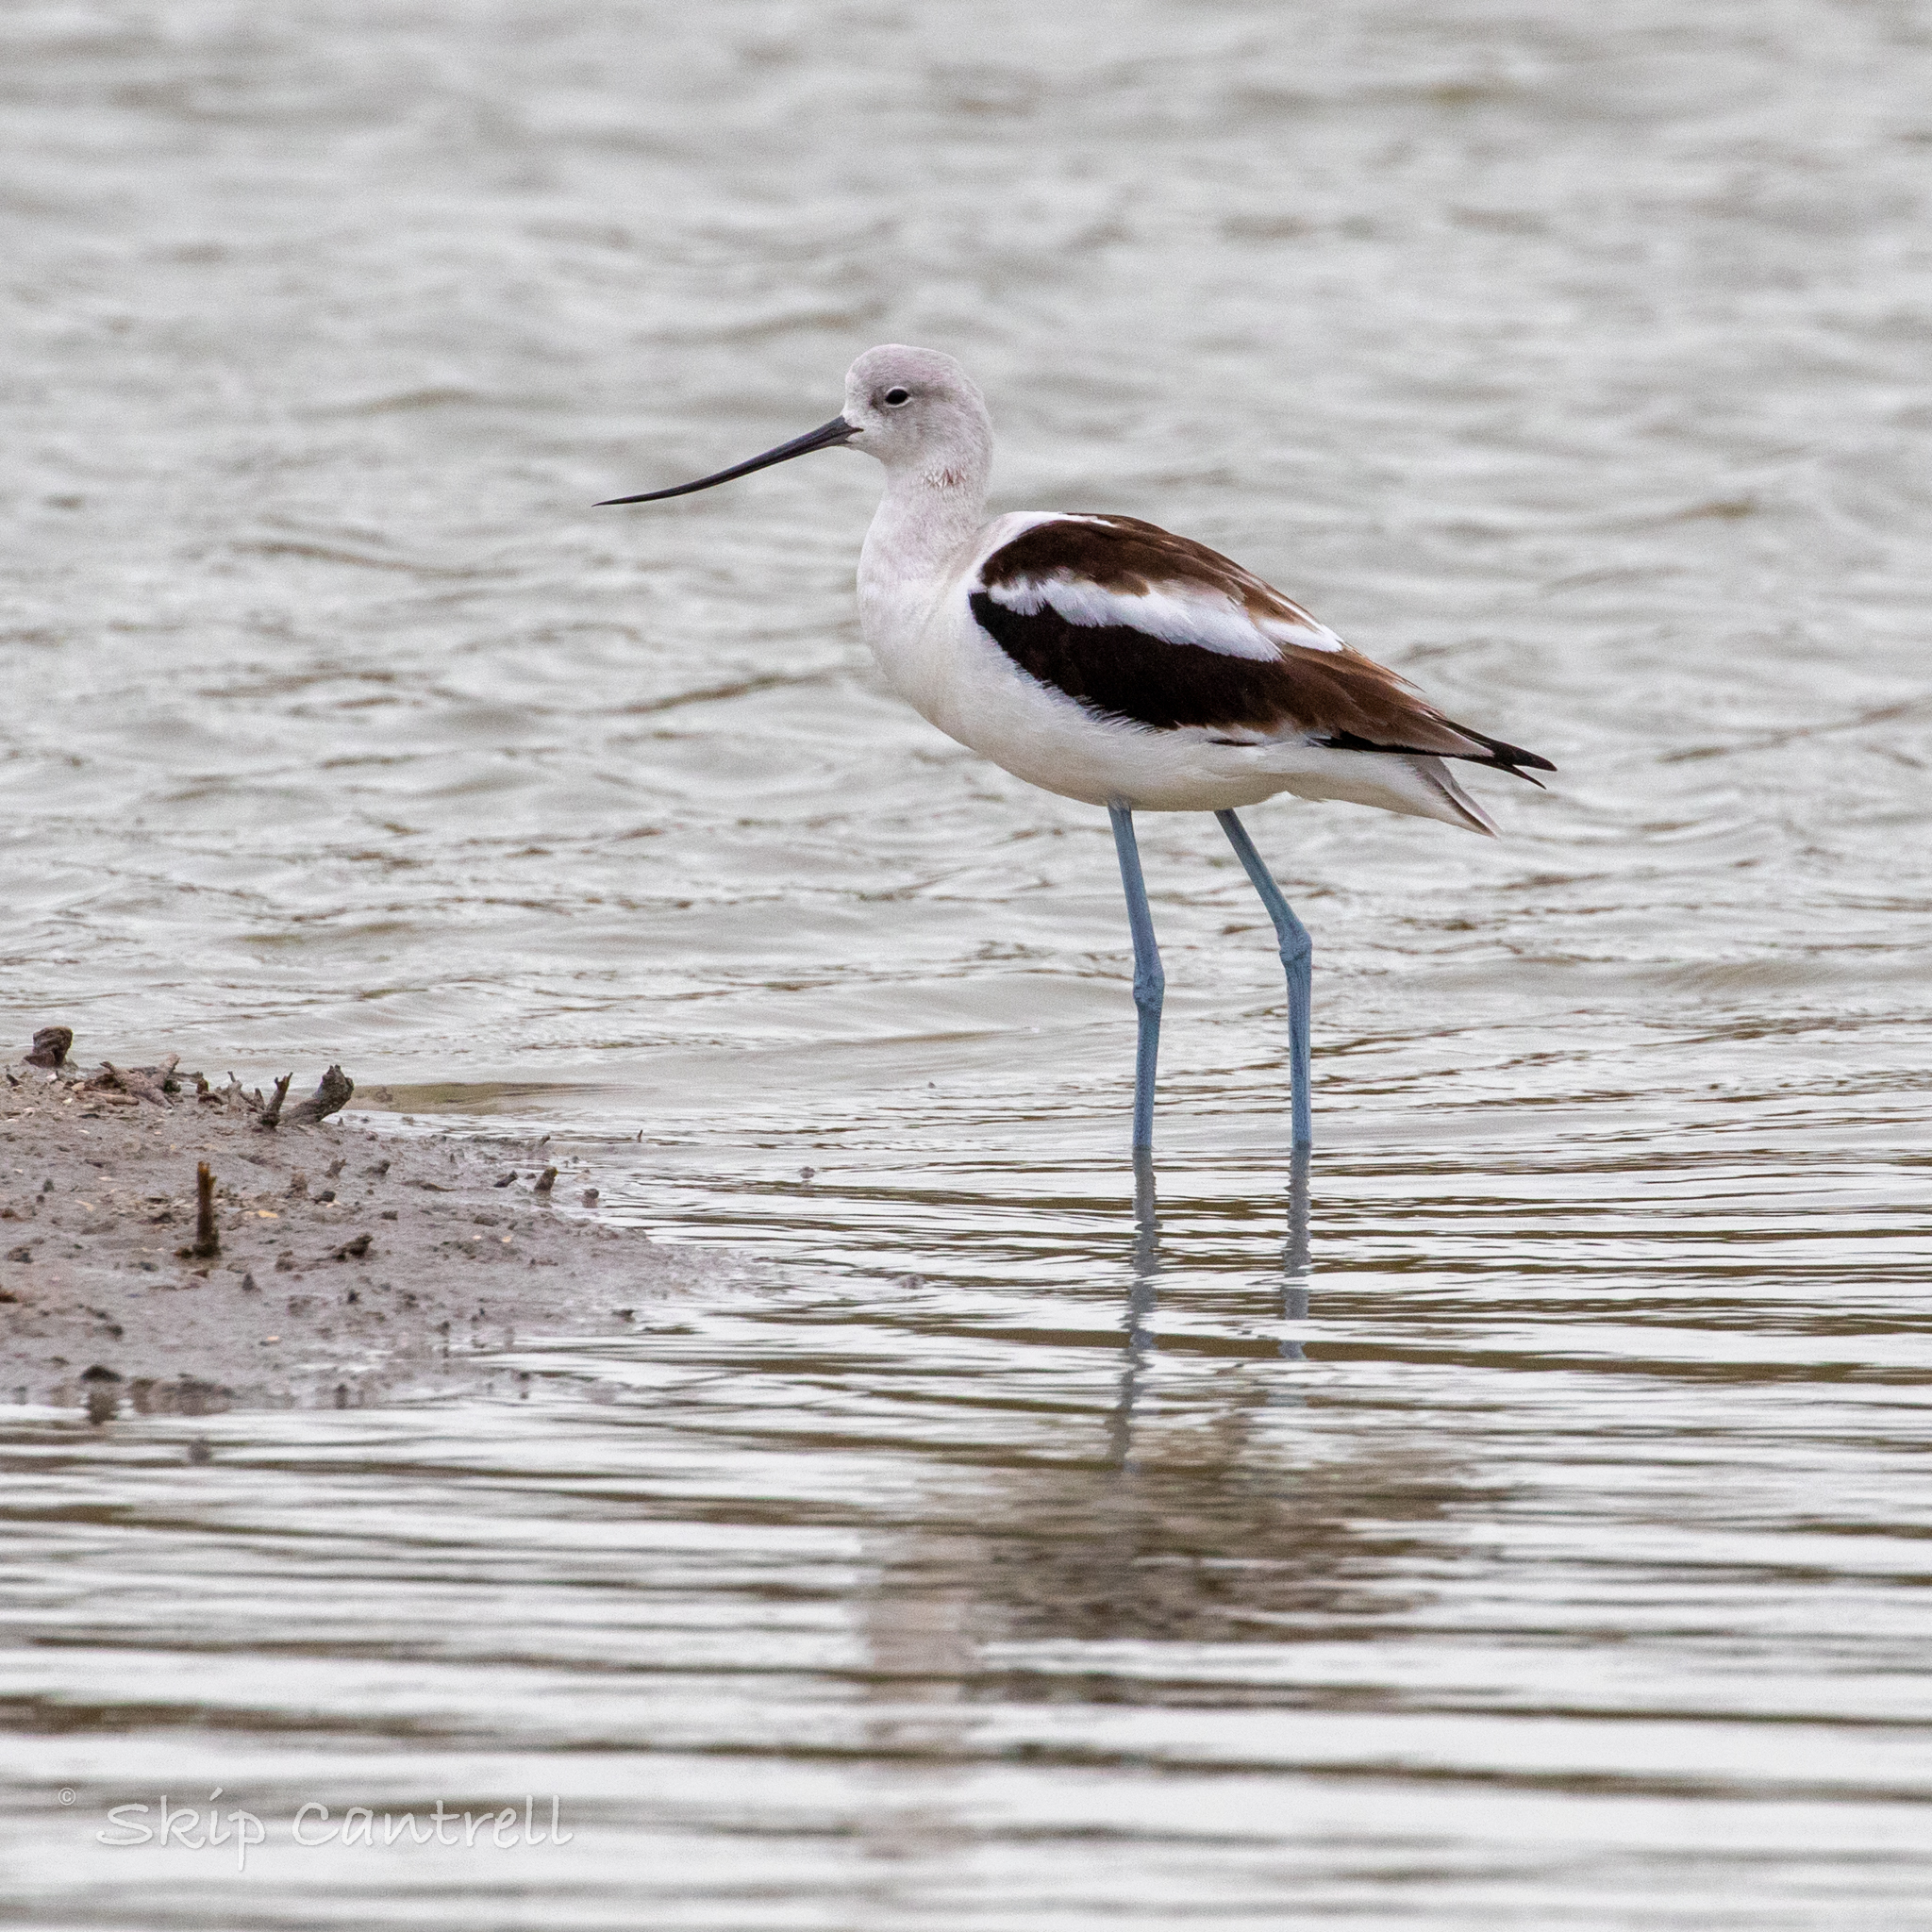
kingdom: Animalia
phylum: Chordata
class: Aves
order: Charadriiformes
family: Recurvirostridae
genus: Recurvirostra
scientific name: Recurvirostra americana
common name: American avocet
